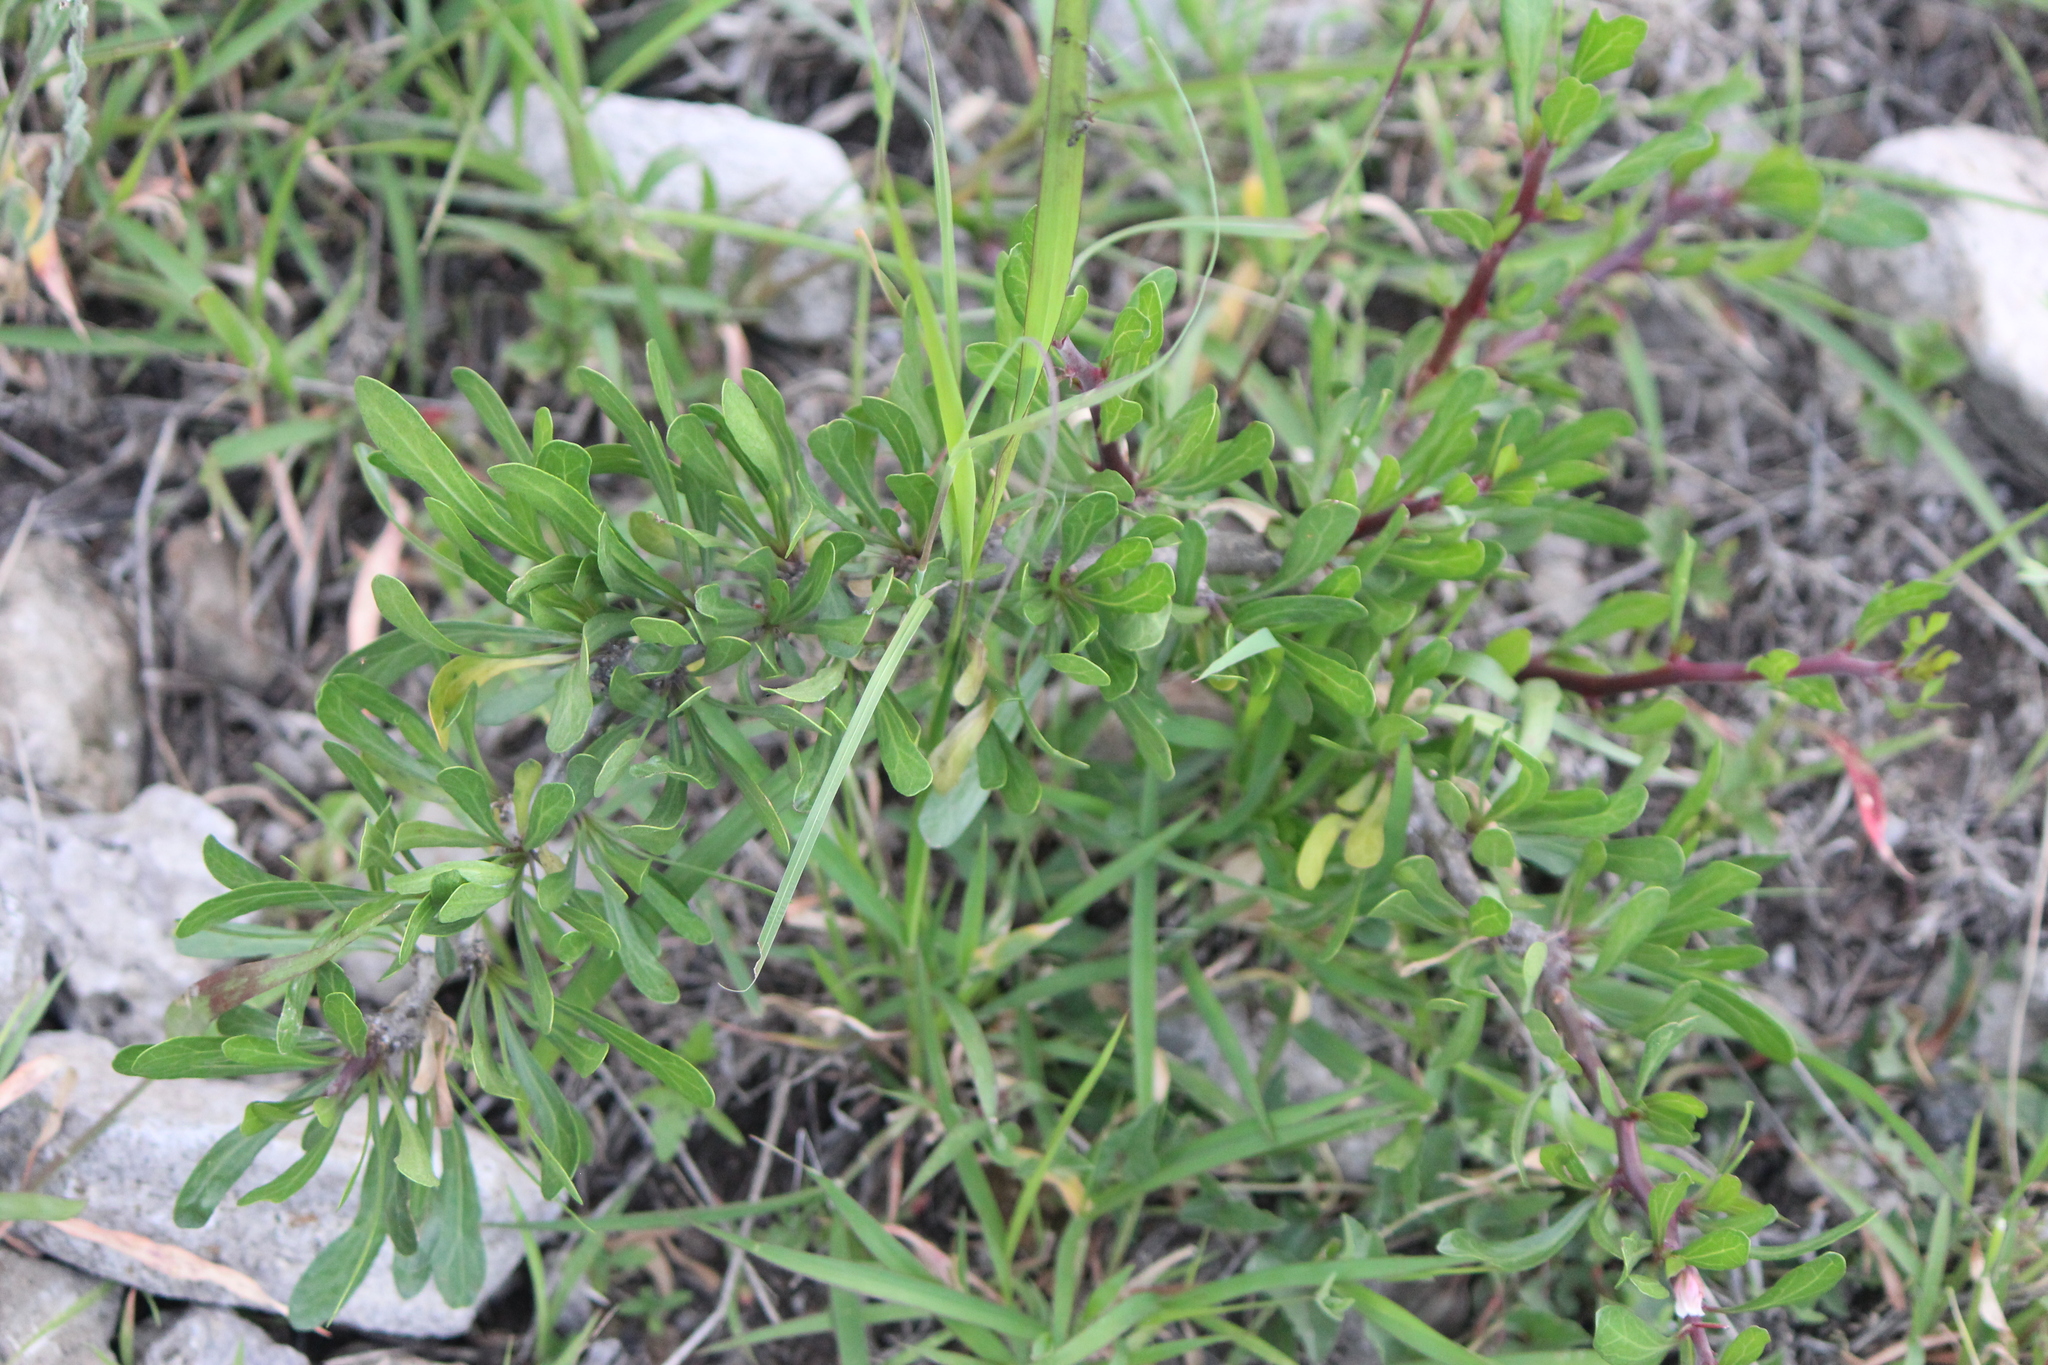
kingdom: Plantae
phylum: Tracheophyta
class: Magnoliopsida
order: Malpighiales
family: Euphorbiaceae
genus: Jatropha
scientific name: Jatropha dioica
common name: Leatherstem
